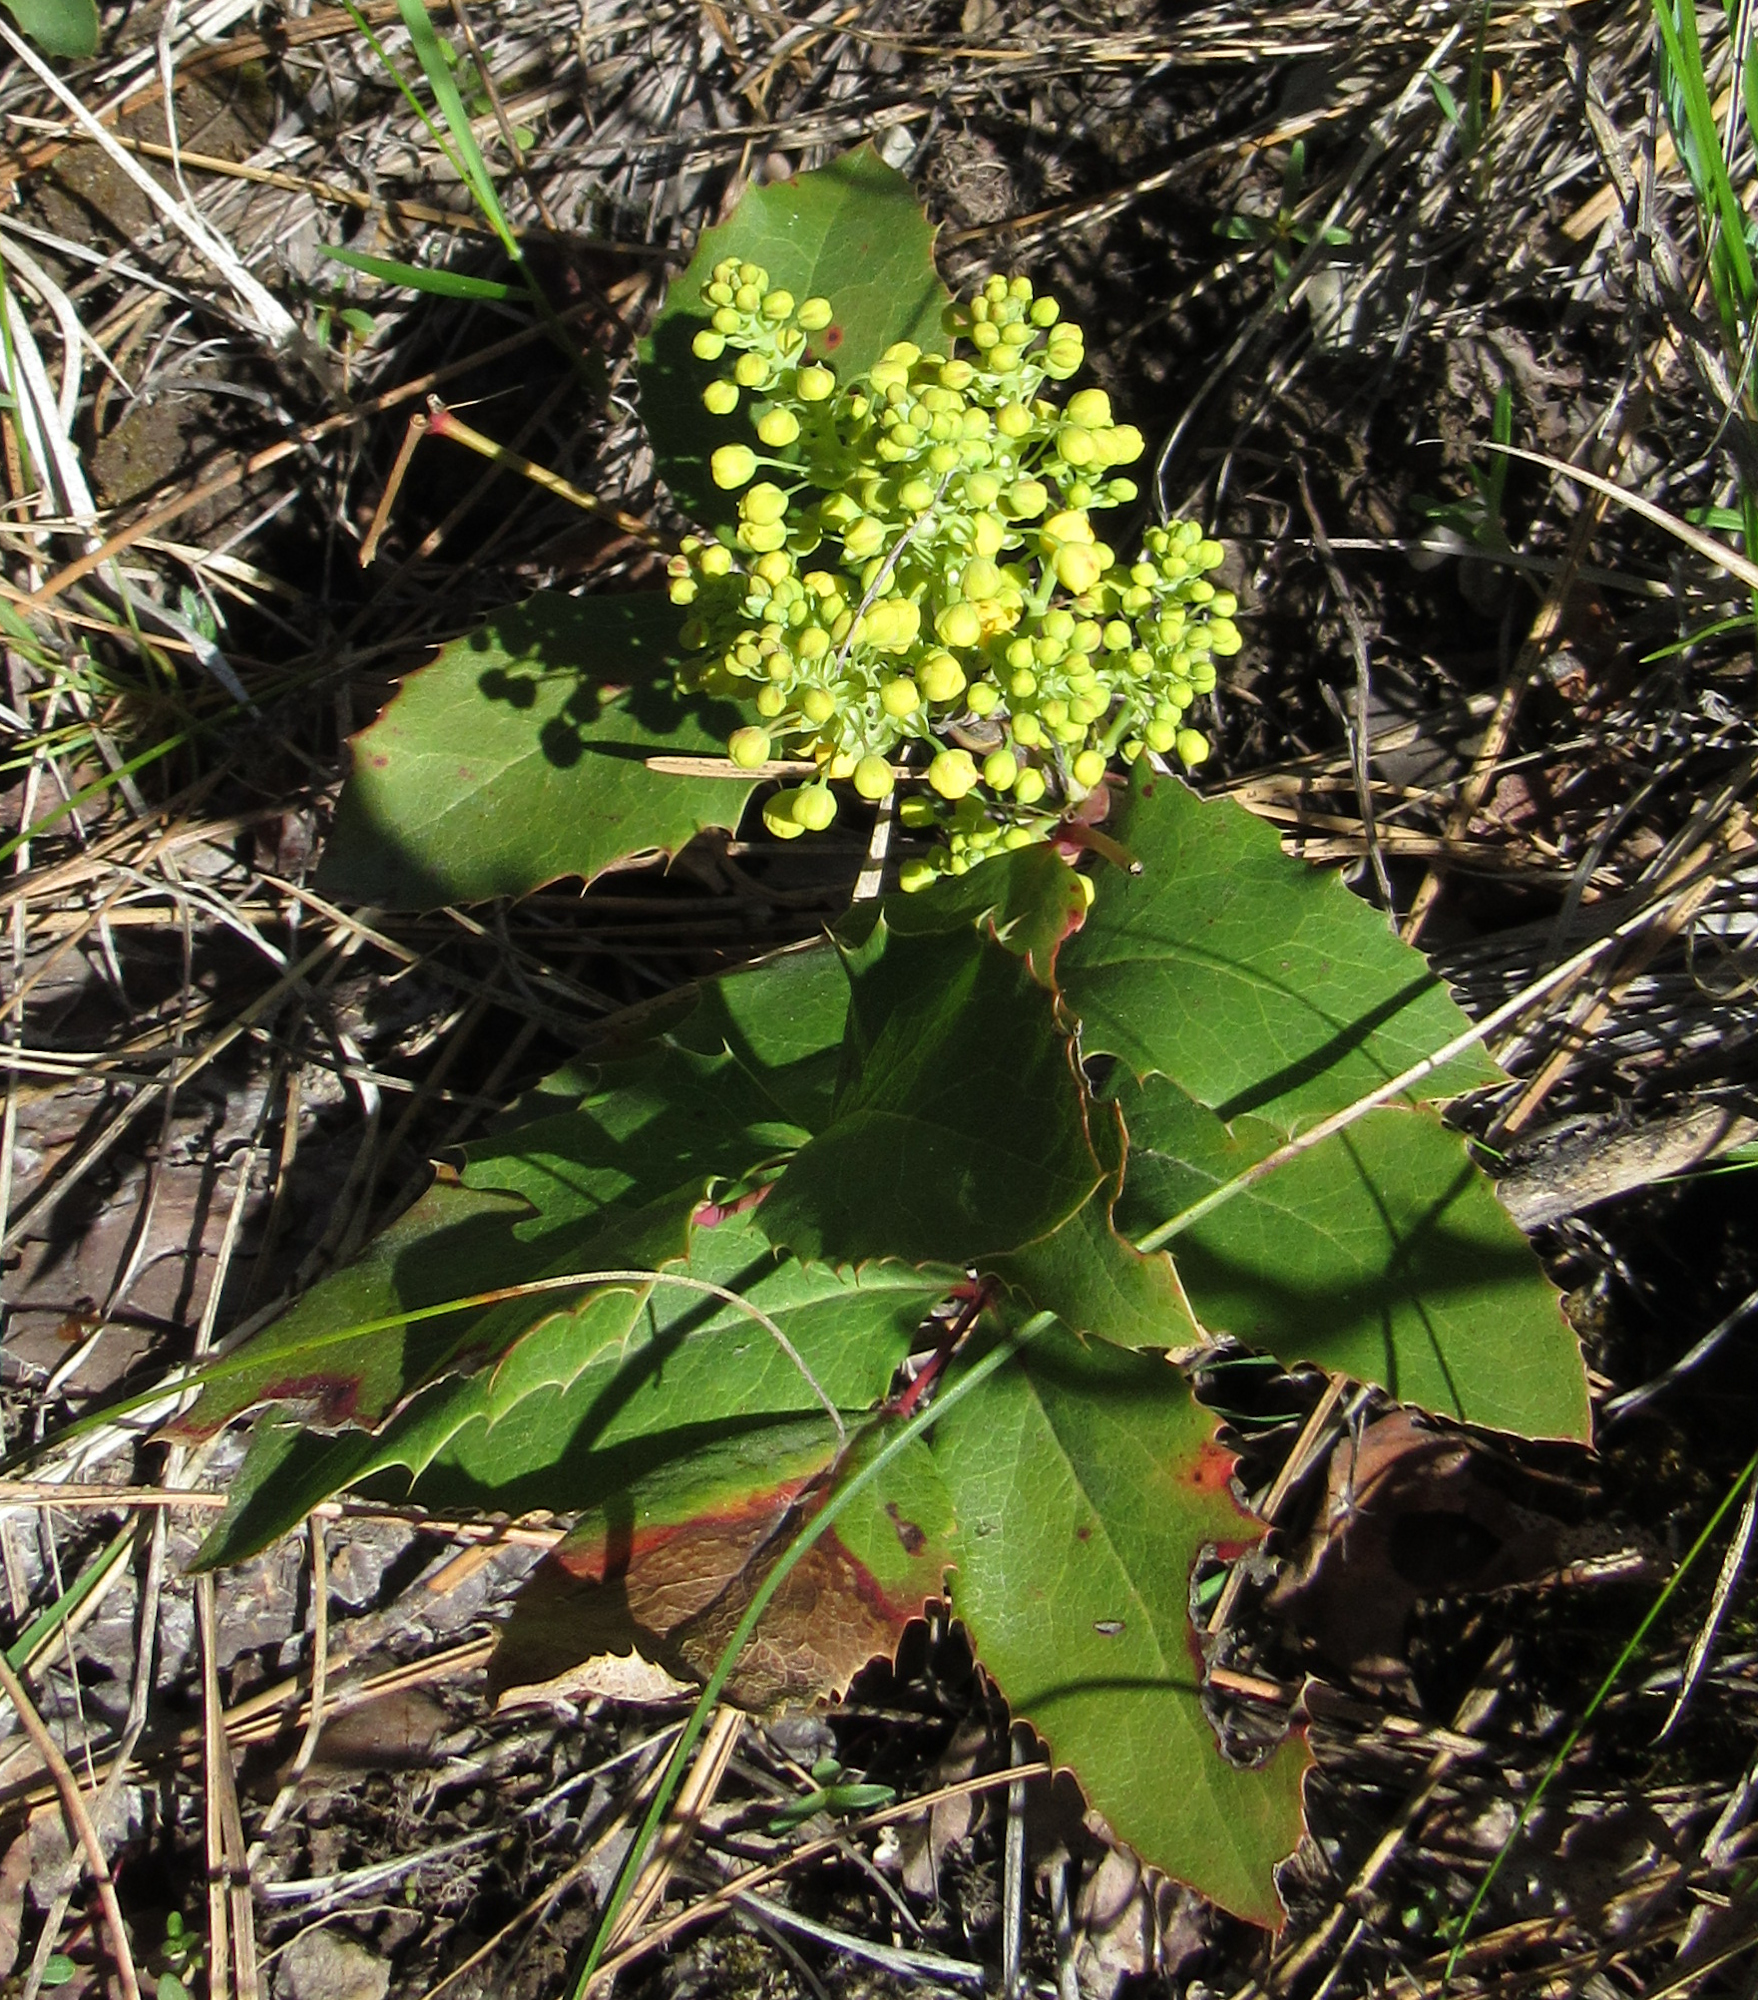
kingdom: Plantae
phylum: Tracheophyta
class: Magnoliopsida
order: Ranunculales
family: Berberidaceae
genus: Mahonia
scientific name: Mahonia repens
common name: Creeping oregon-grape
